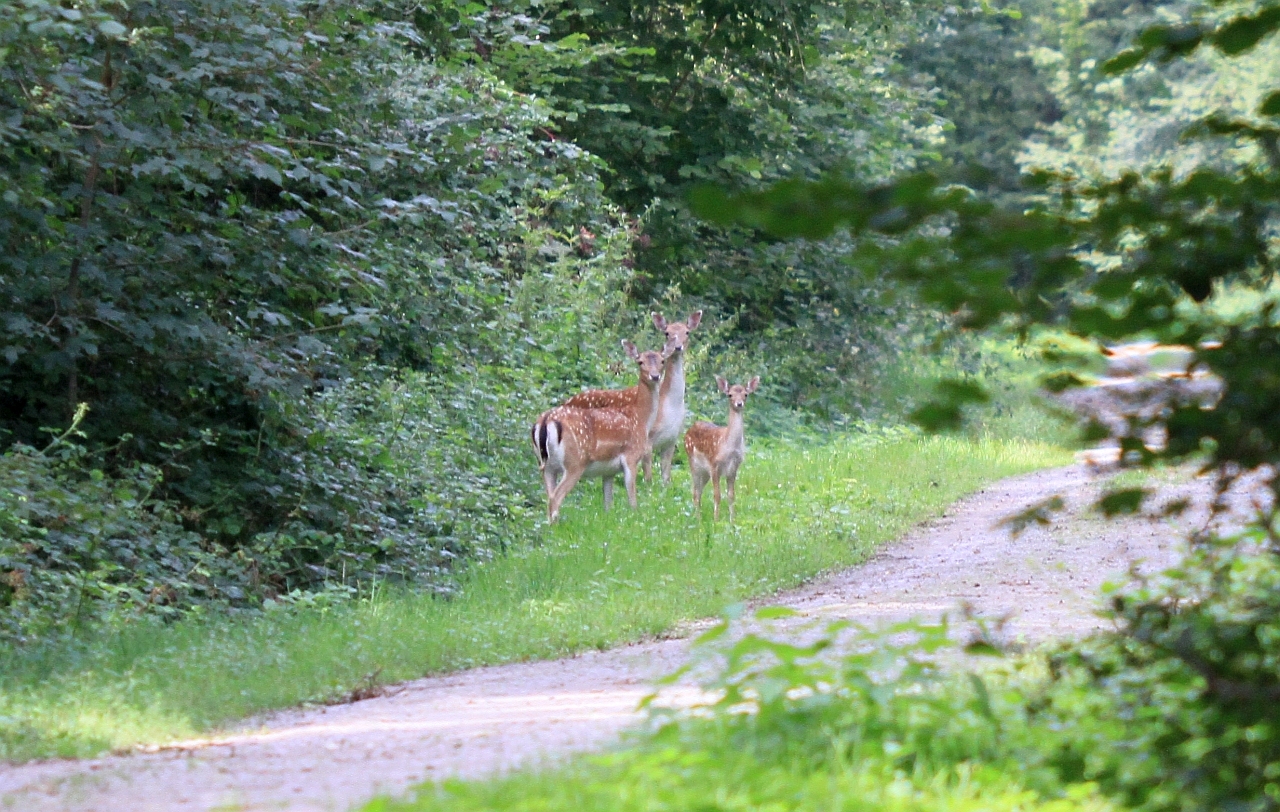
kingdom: Animalia
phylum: Chordata
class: Mammalia
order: Artiodactyla
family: Cervidae
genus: Dama
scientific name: Dama dama
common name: Fallow deer
